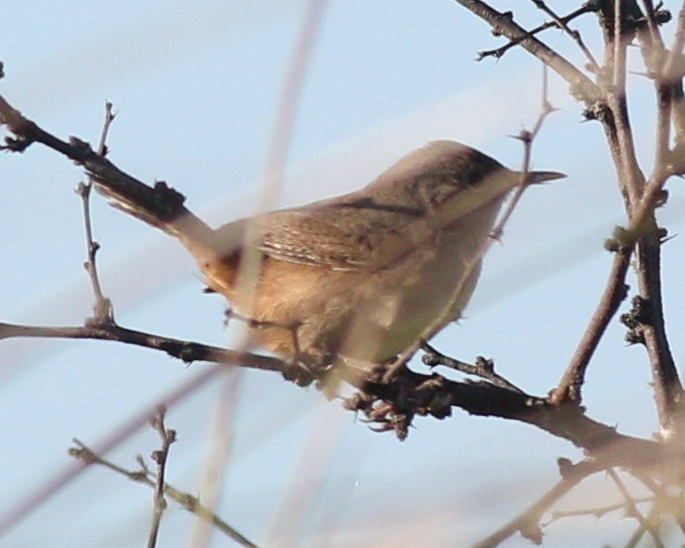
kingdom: Animalia
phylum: Chordata
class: Aves
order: Passeriformes
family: Troglodytidae
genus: Troglodytes
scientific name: Troglodytes aedon
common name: House wren
